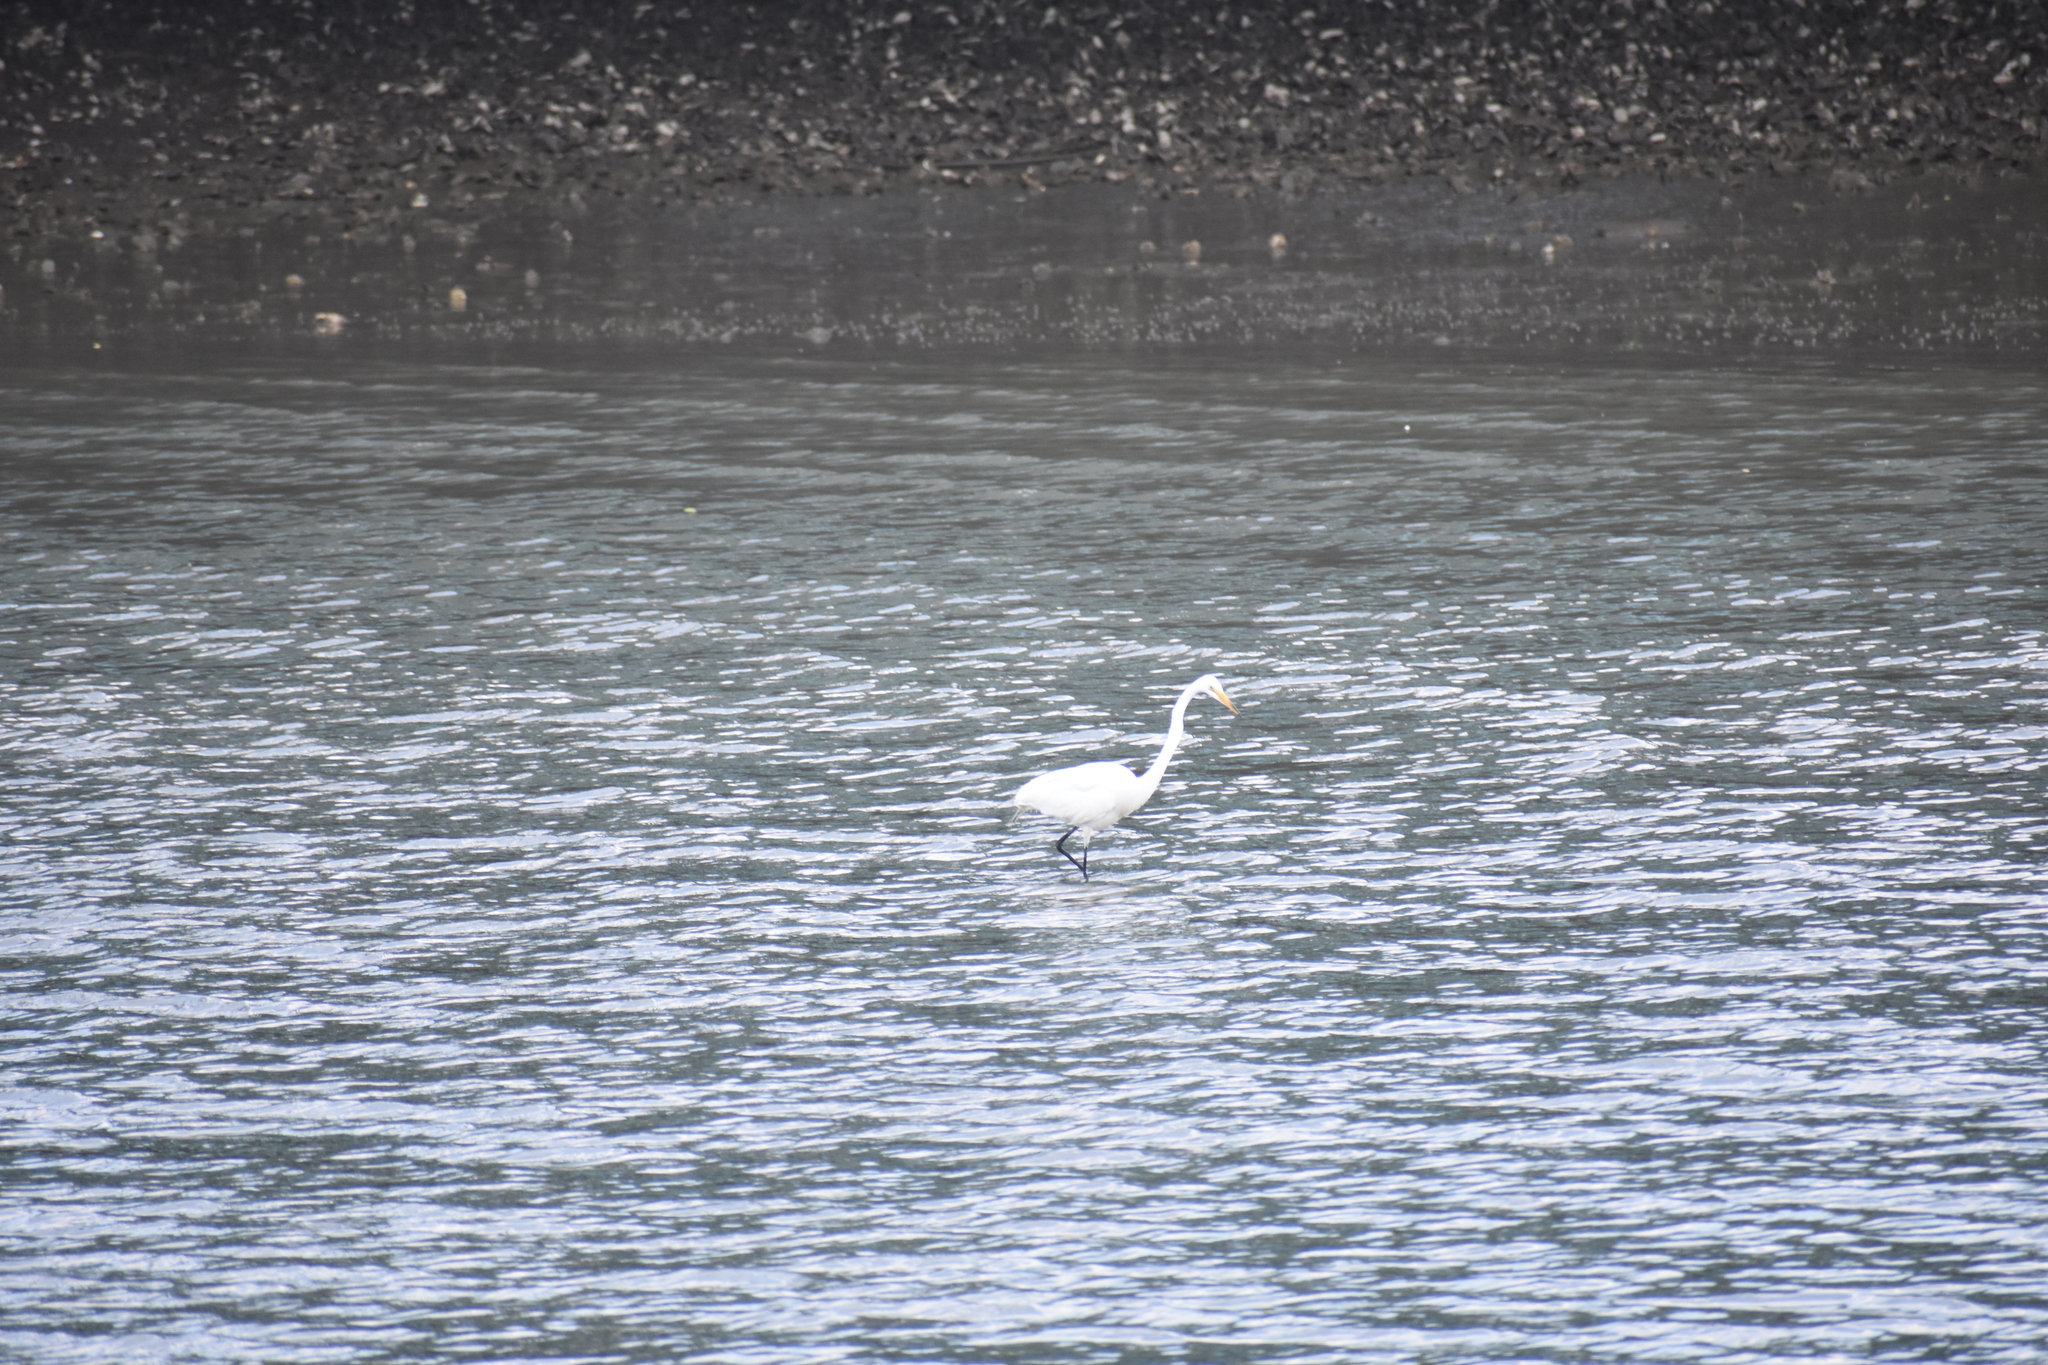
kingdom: Animalia
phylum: Chordata
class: Aves
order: Pelecaniformes
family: Ardeidae
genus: Ardea
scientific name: Ardea alba
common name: Great egret
